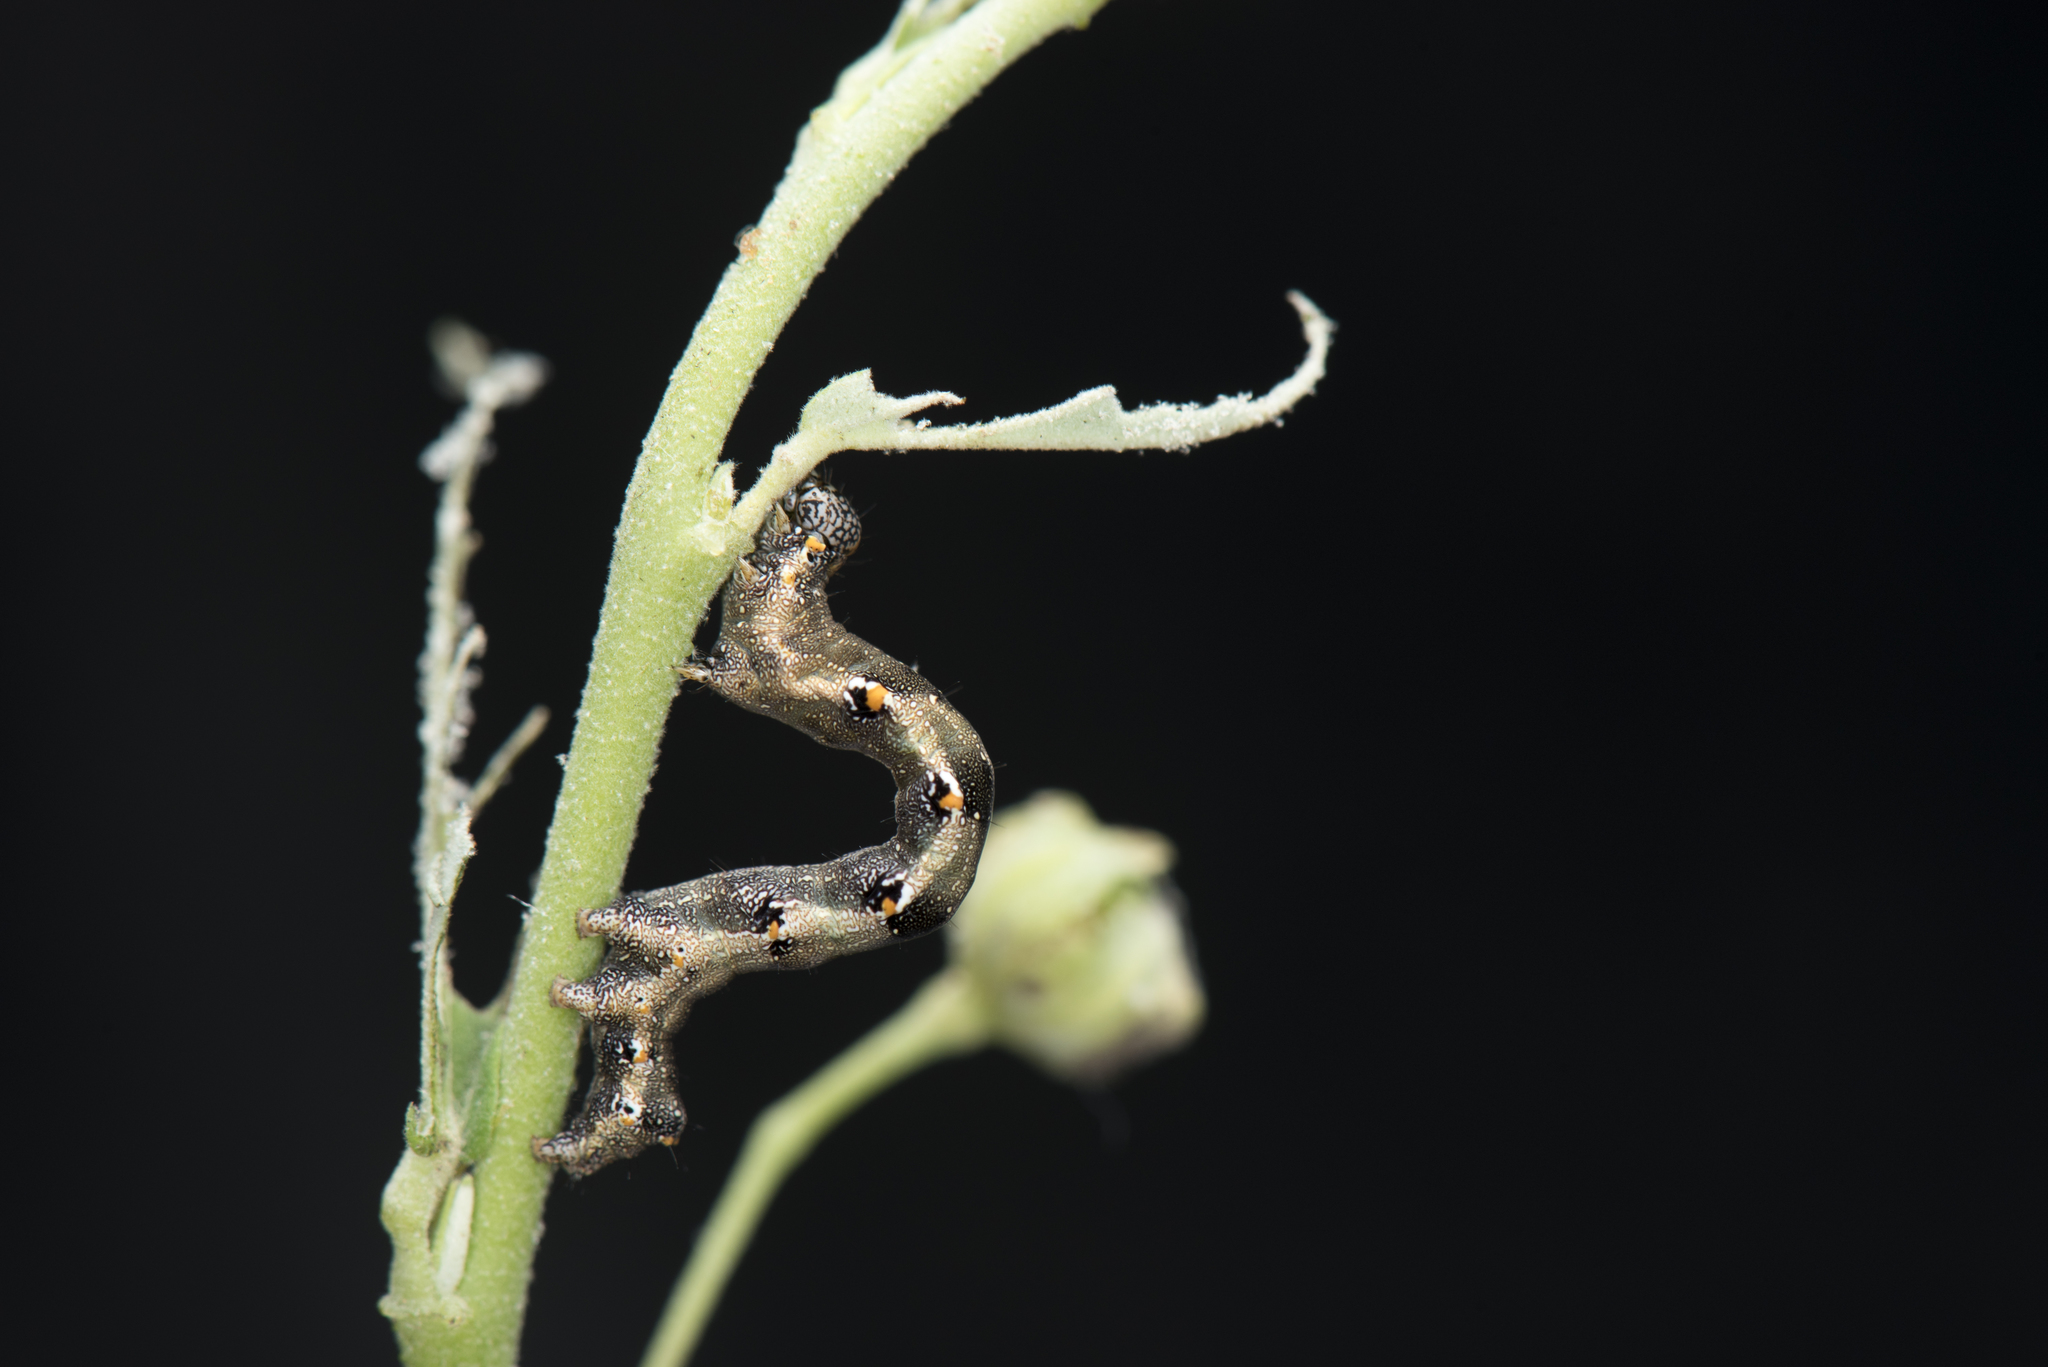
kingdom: Animalia
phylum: Arthropoda
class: Insecta
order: Lepidoptera
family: Noctuidae
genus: Acontia
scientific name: Acontia marmoralis
